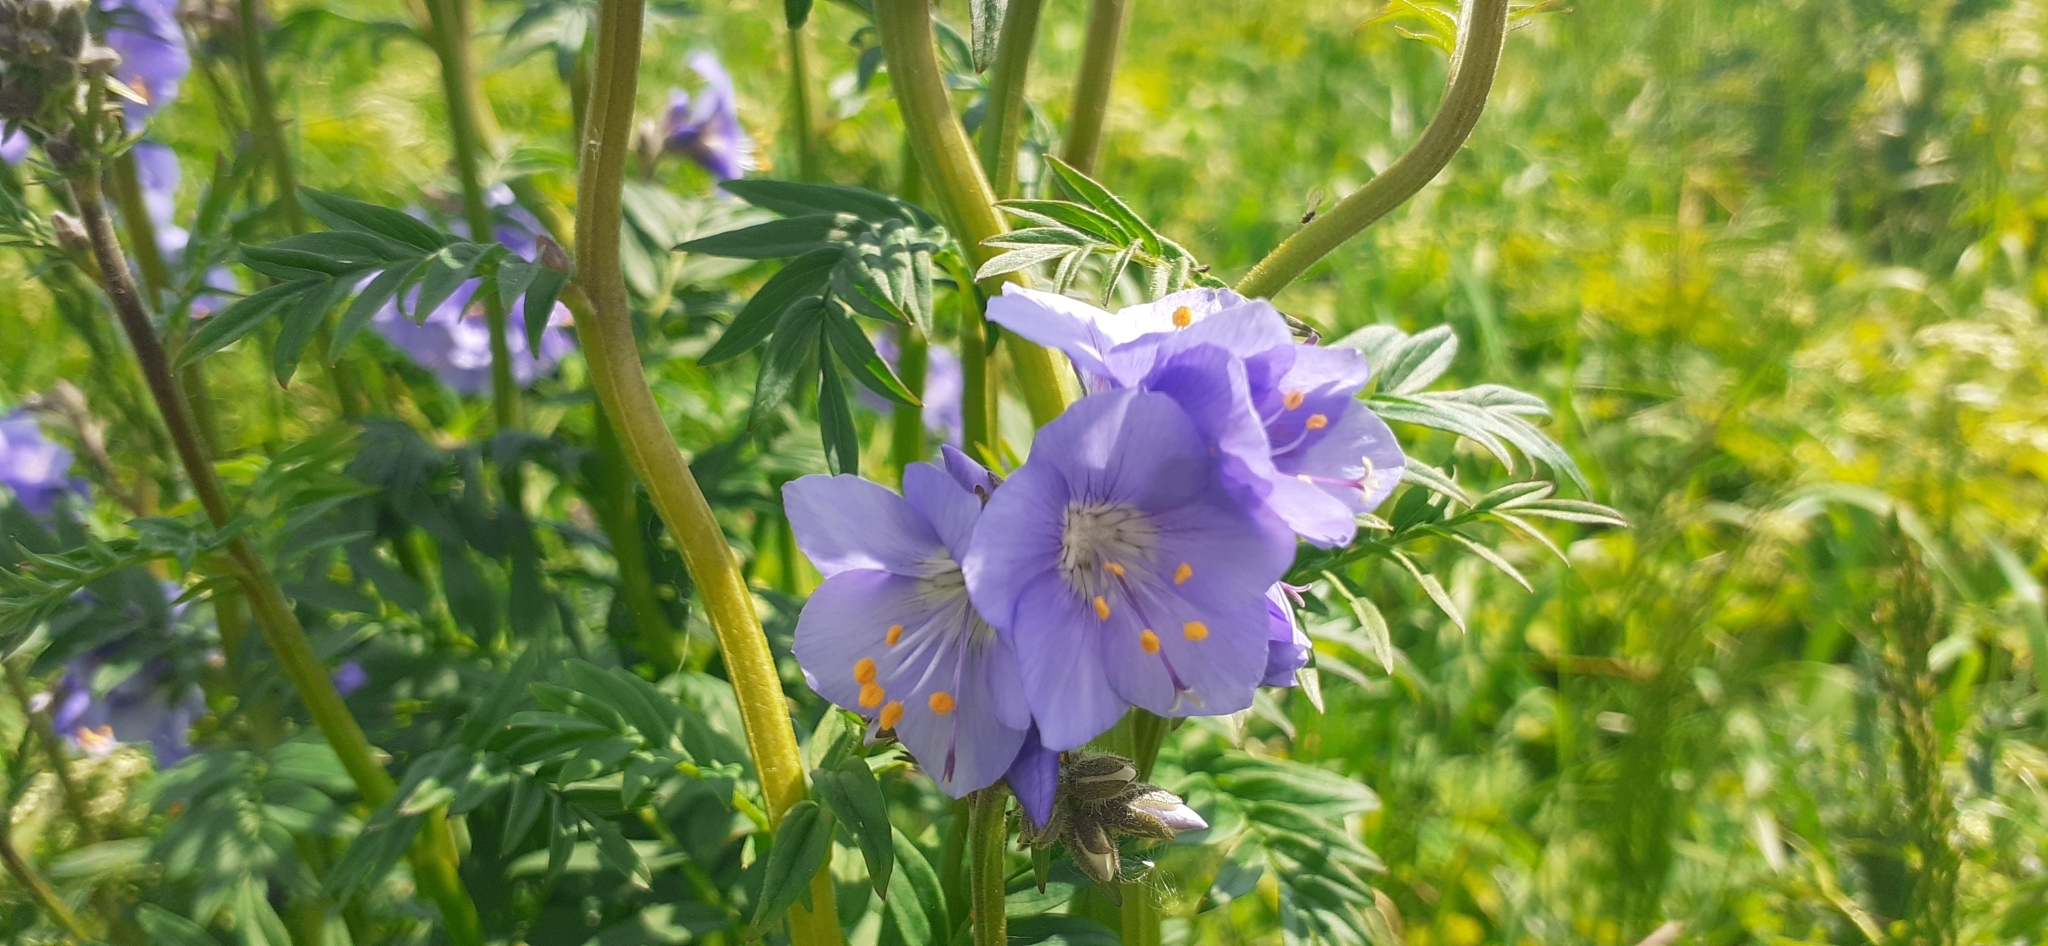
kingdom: Plantae
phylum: Tracheophyta
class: Magnoliopsida
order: Ericales
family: Polemoniaceae
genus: Polemonium
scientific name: Polemonium caeruleum
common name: Jacob's-ladder
